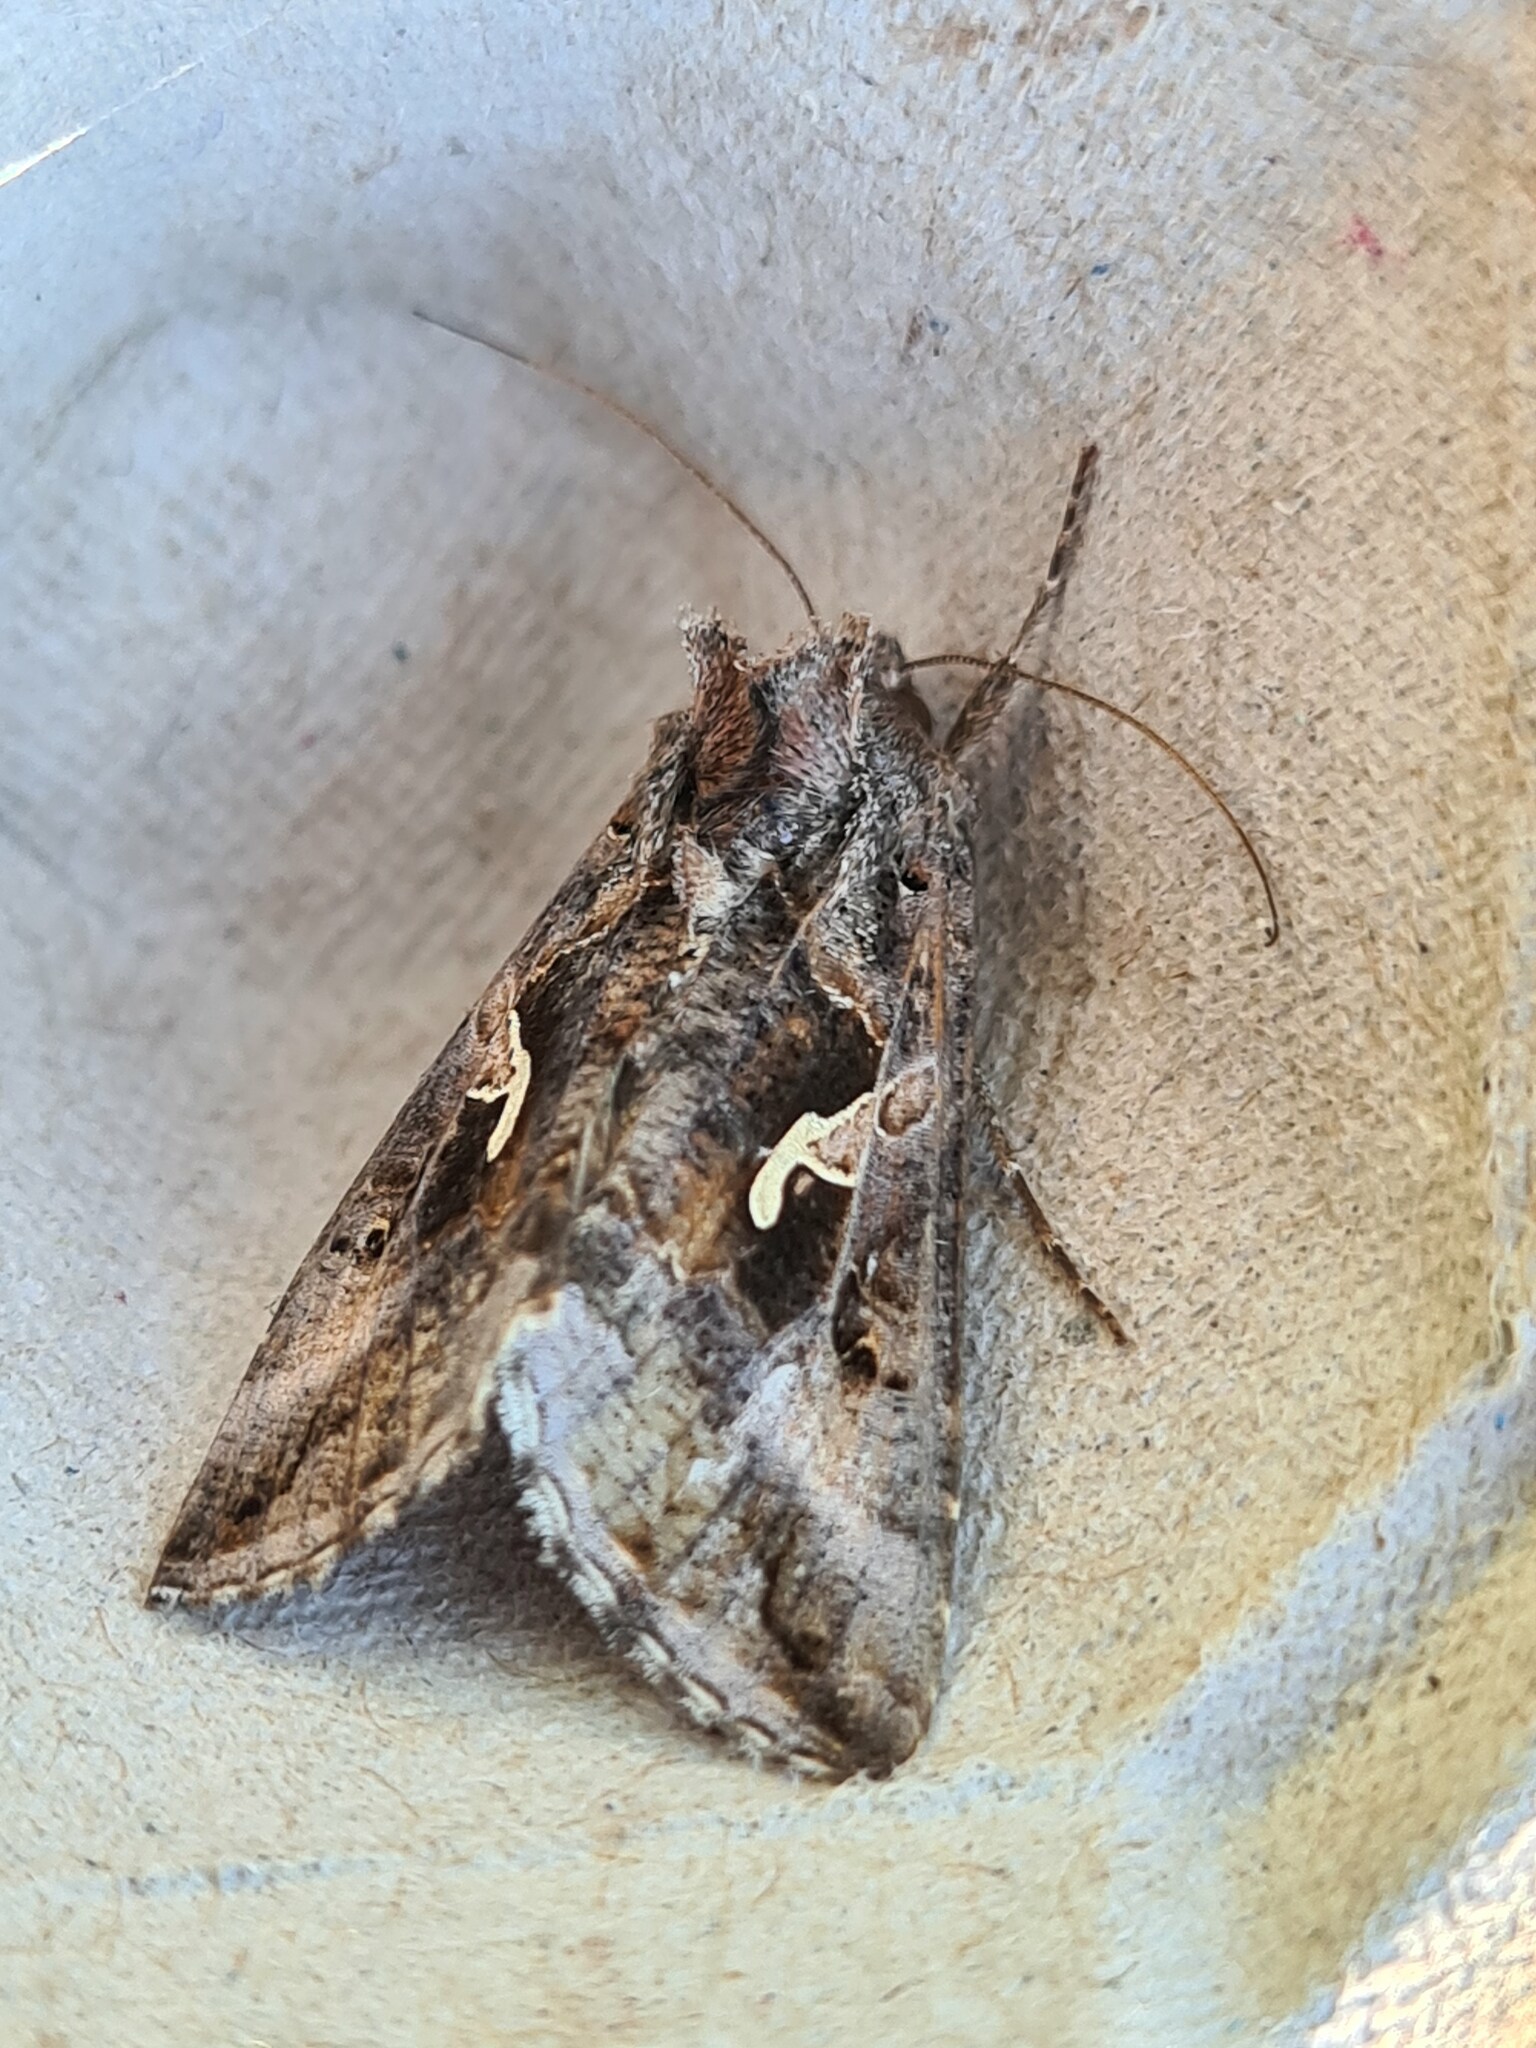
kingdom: Animalia
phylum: Arthropoda
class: Insecta
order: Lepidoptera
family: Noctuidae
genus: Autographa
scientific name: Autographa gamma
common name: Silver y
